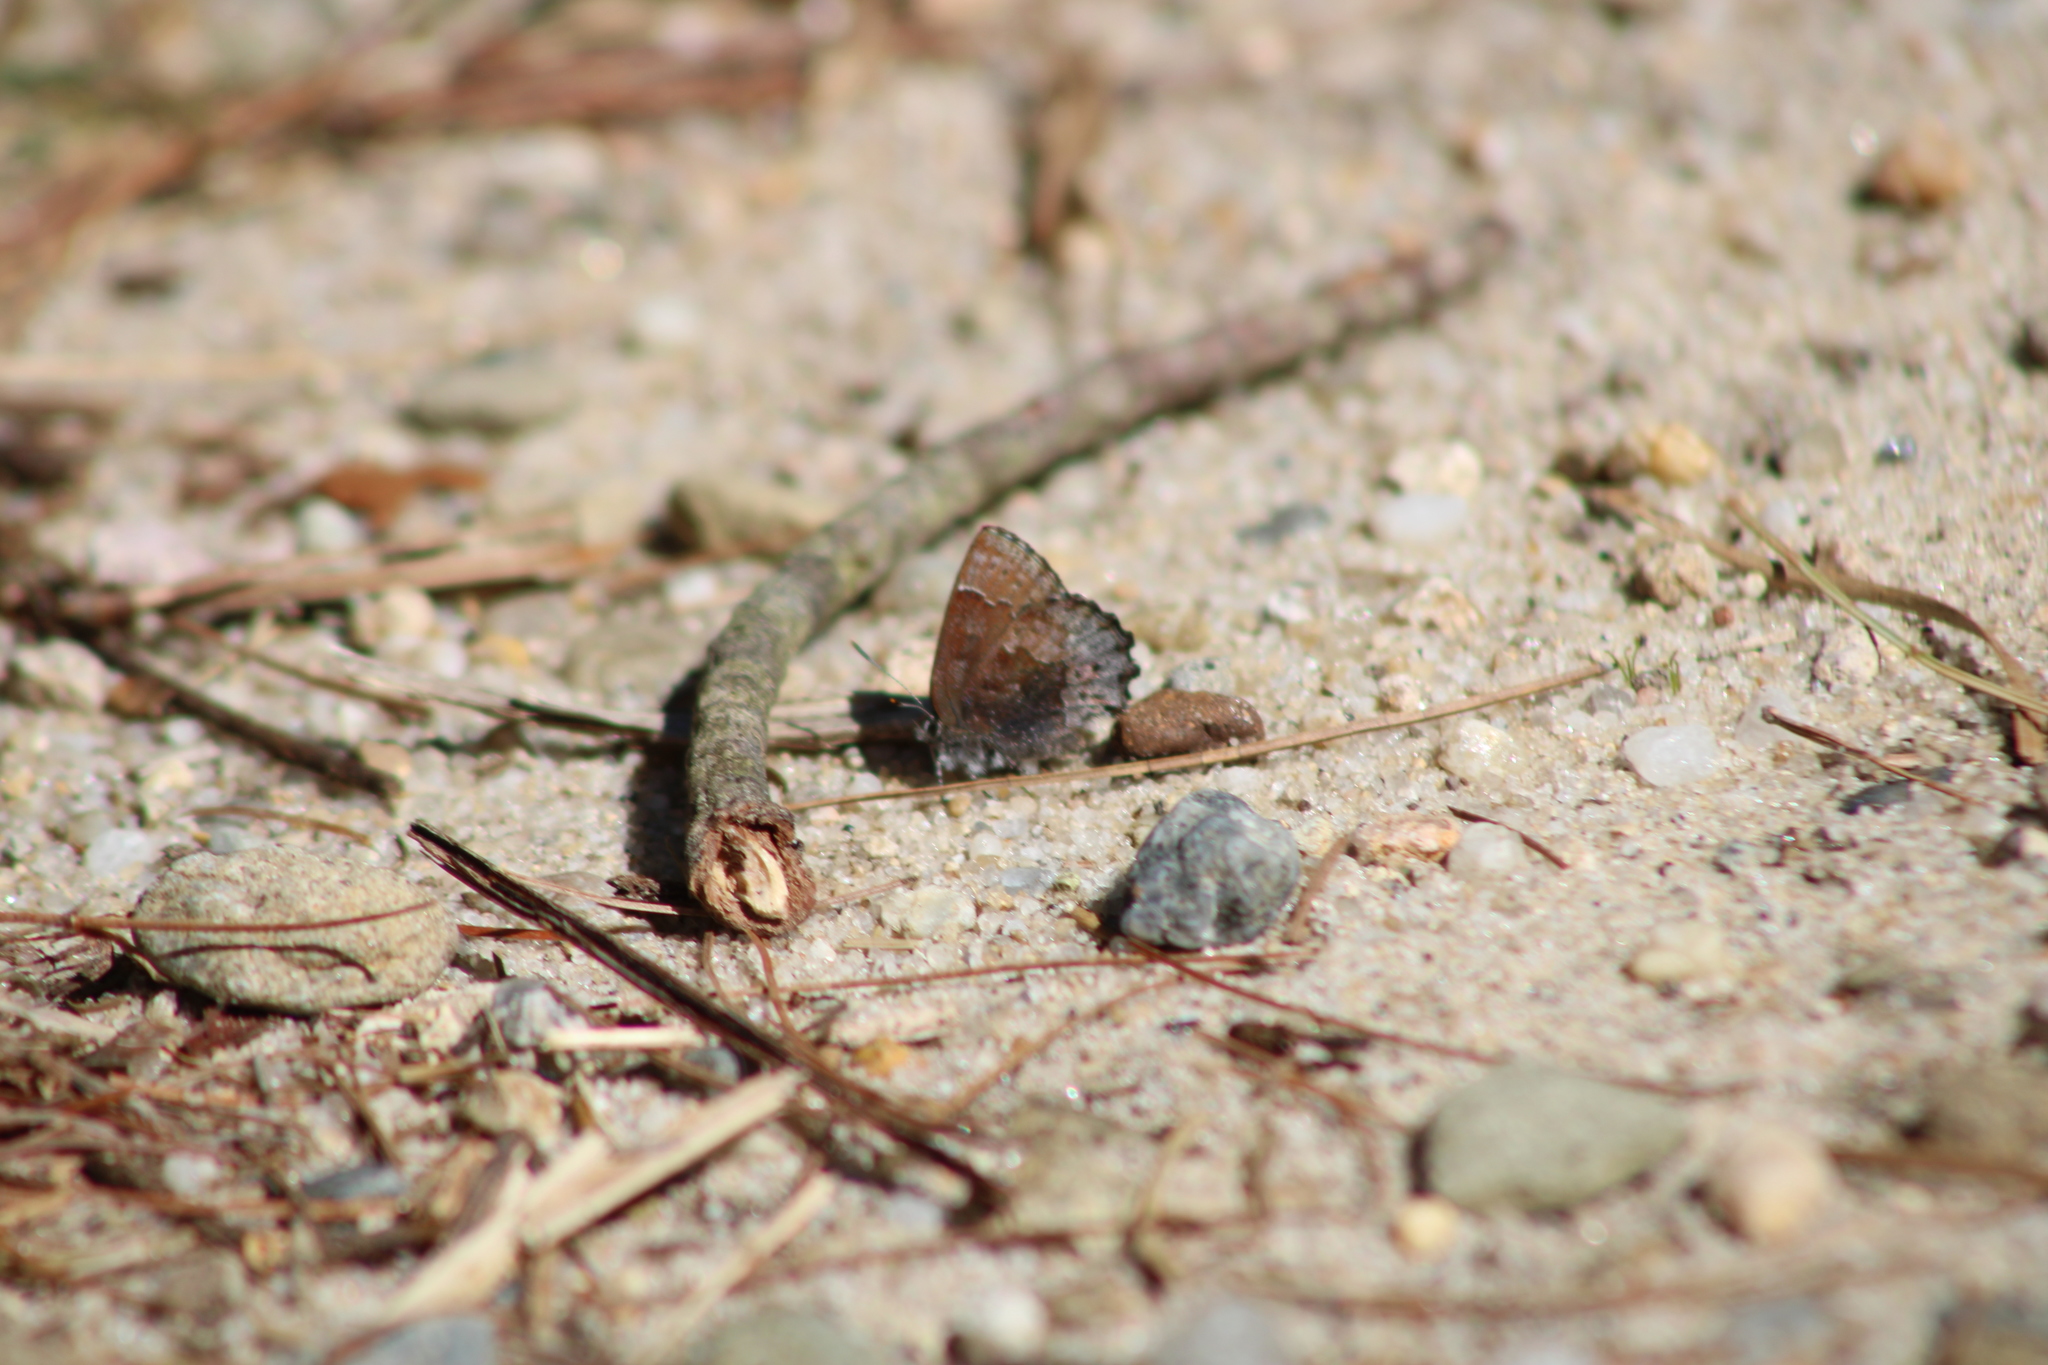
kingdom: Animalia
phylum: Arthropoda
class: Insecta
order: Lepidoptera
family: Lycaenidae
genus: Callophrys
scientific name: Callophrys polios
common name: Hoary elfin
